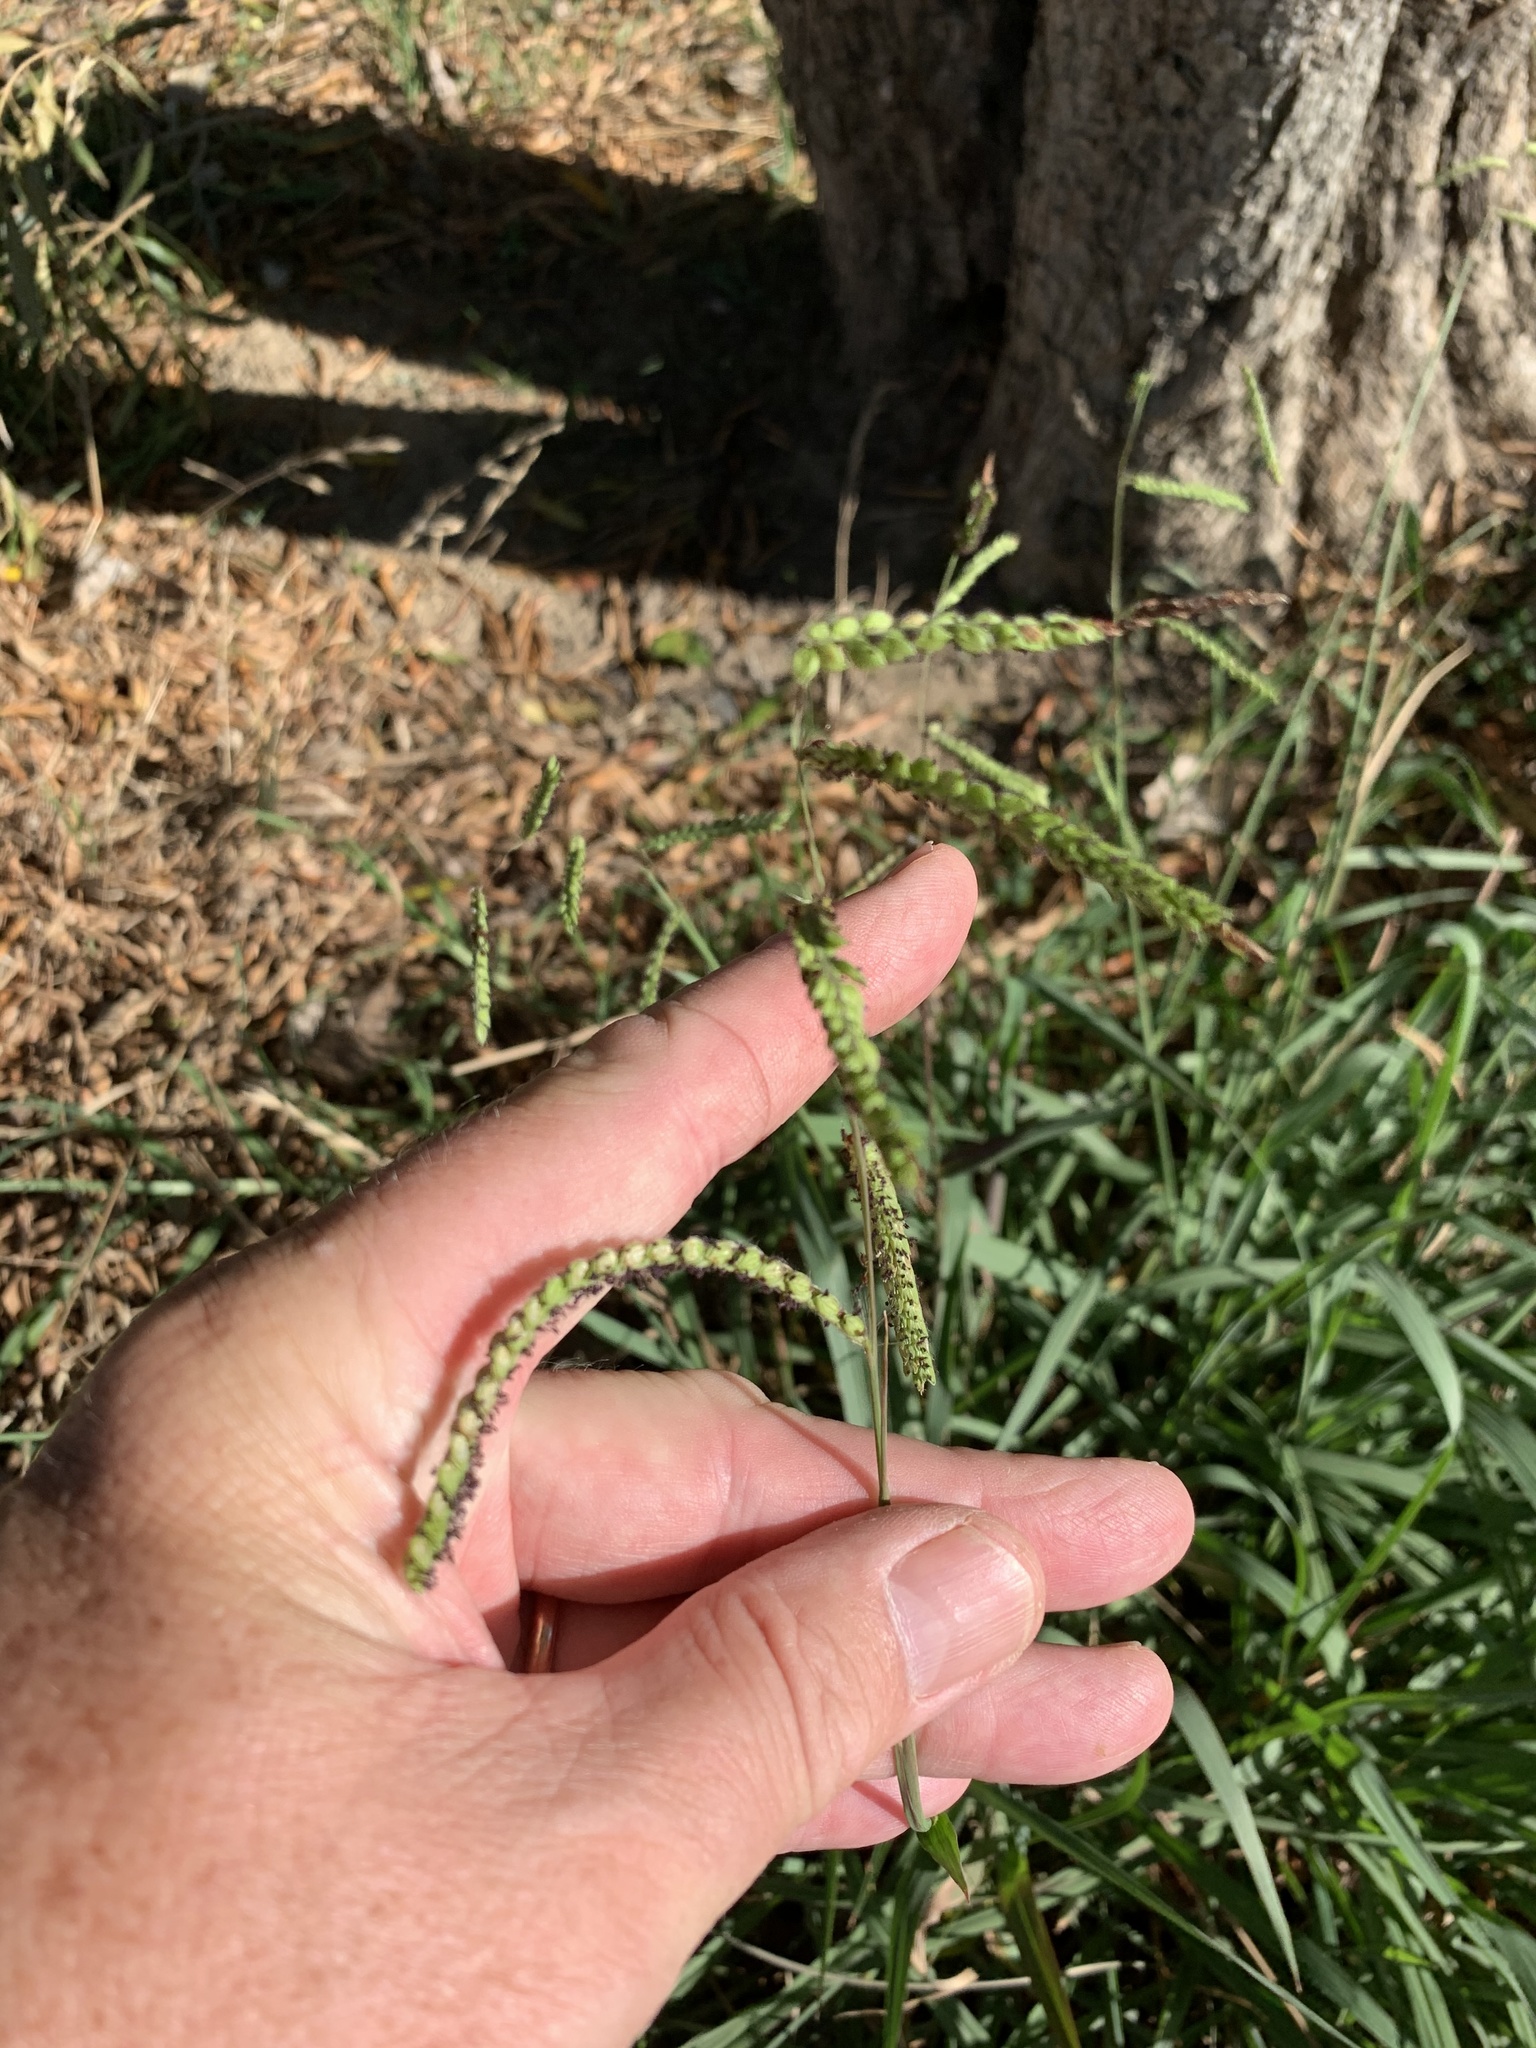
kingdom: Plantae
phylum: Tracheophyta
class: Liliopsida
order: Poales
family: Poaceae
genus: Paspalum
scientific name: Paspalum dilatatum
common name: Dallisgrass
